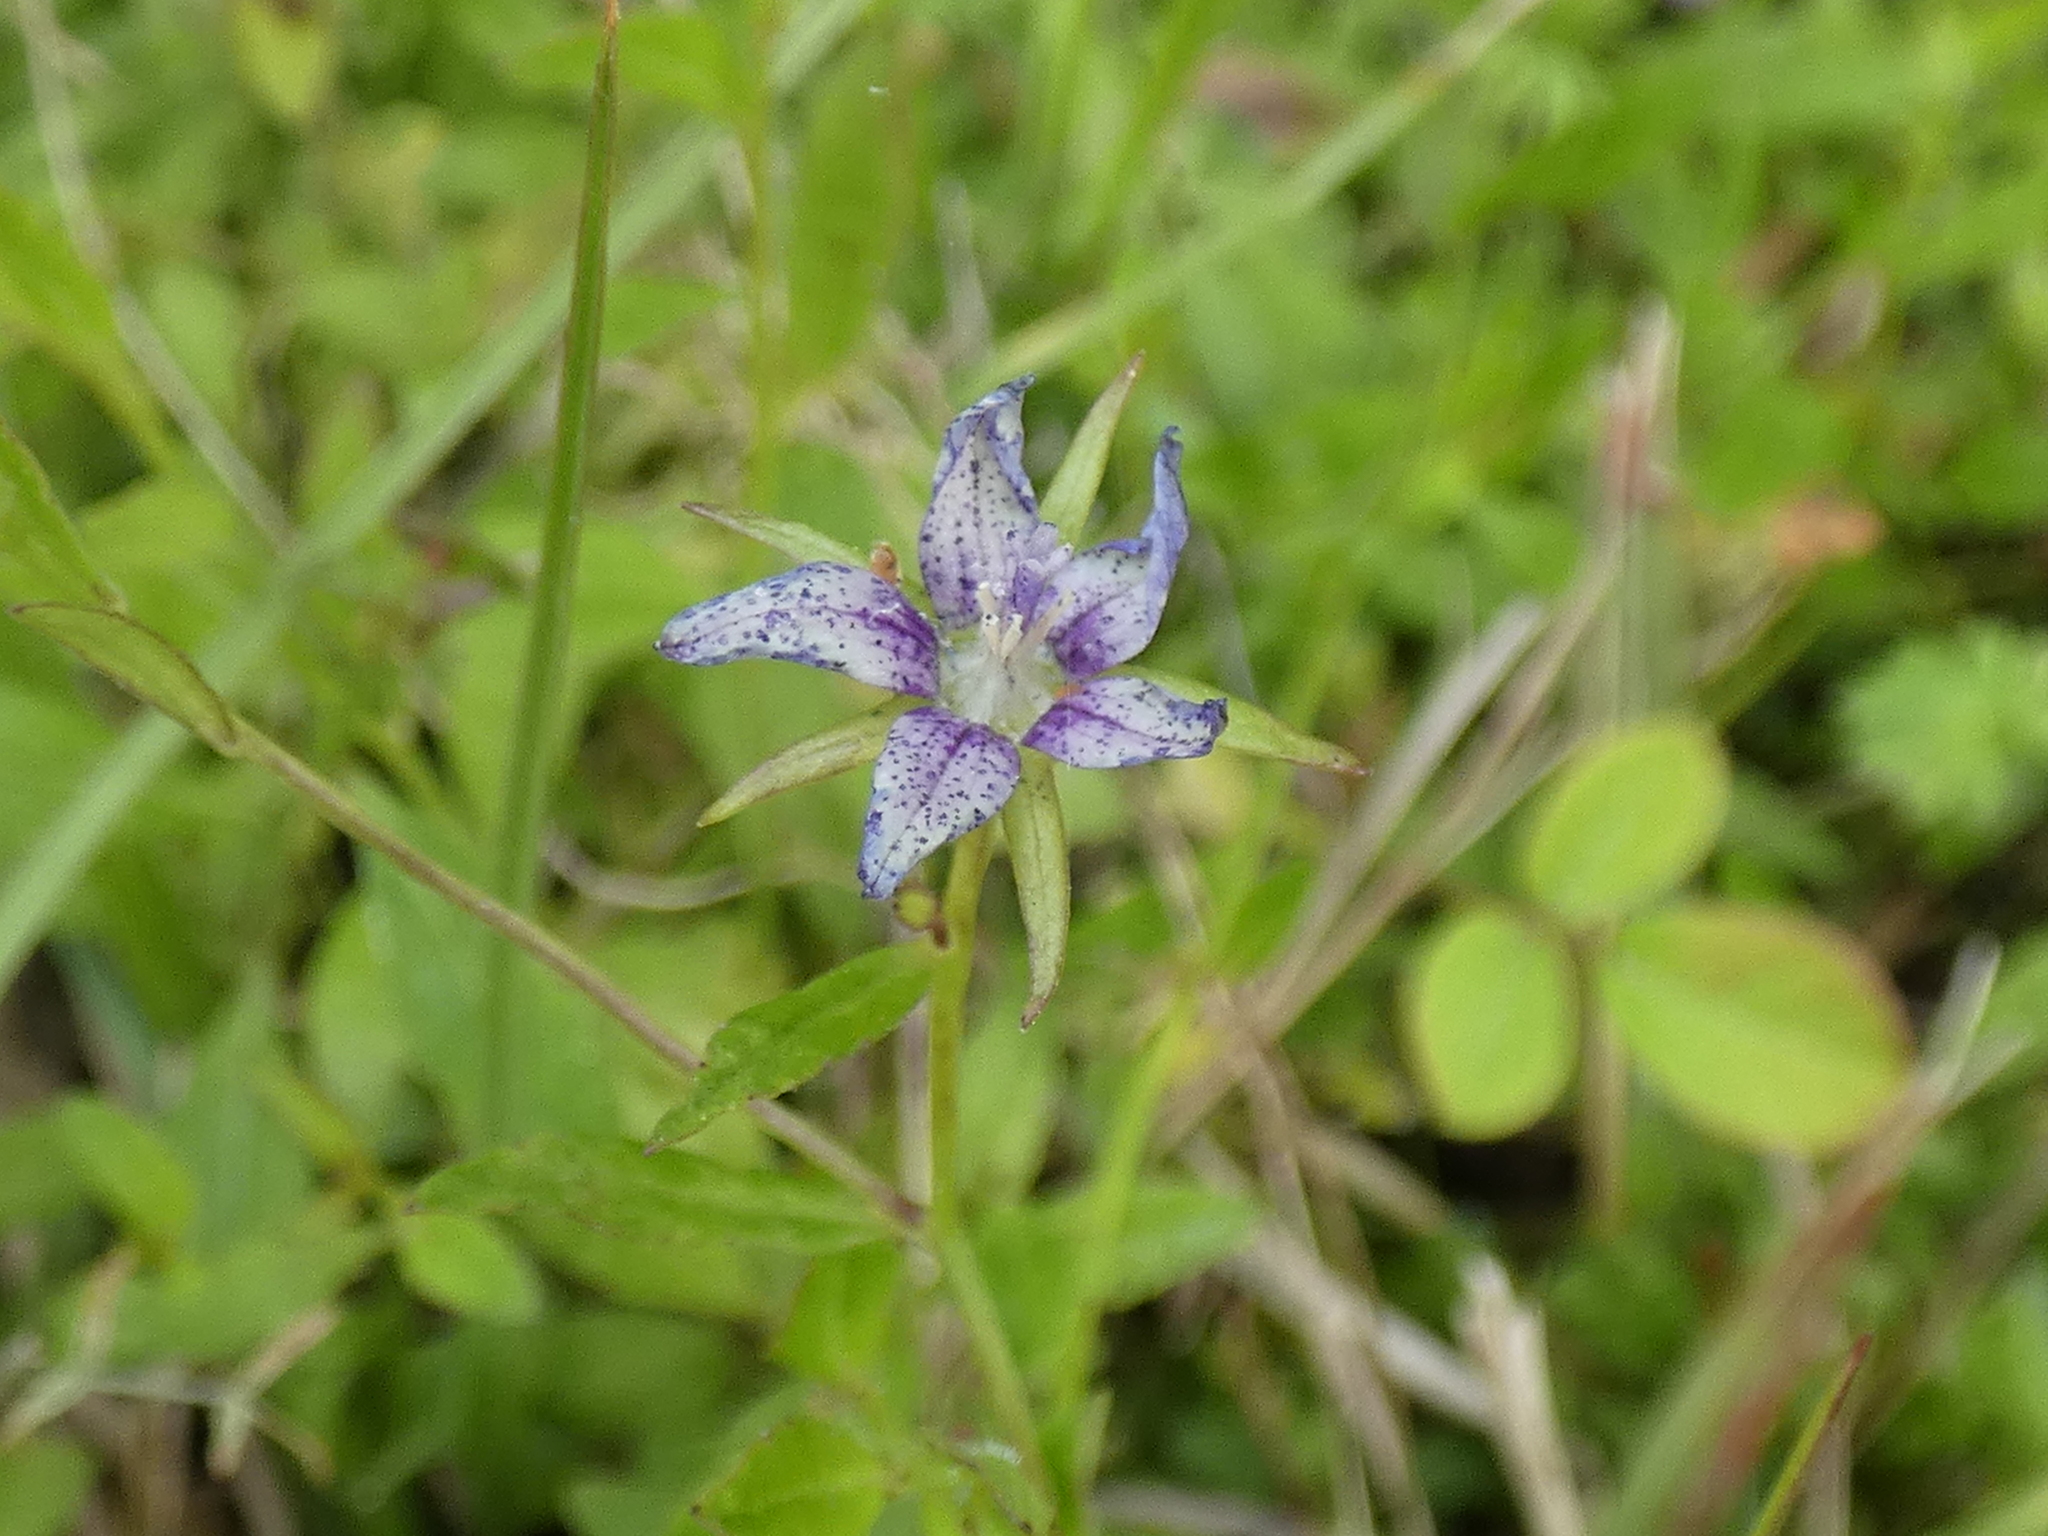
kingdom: Plantae
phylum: Tracheophyta
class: Magnoliopsida
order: Asterales
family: Campanulaceae
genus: Rotanthella
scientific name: Rotanthella floridana
